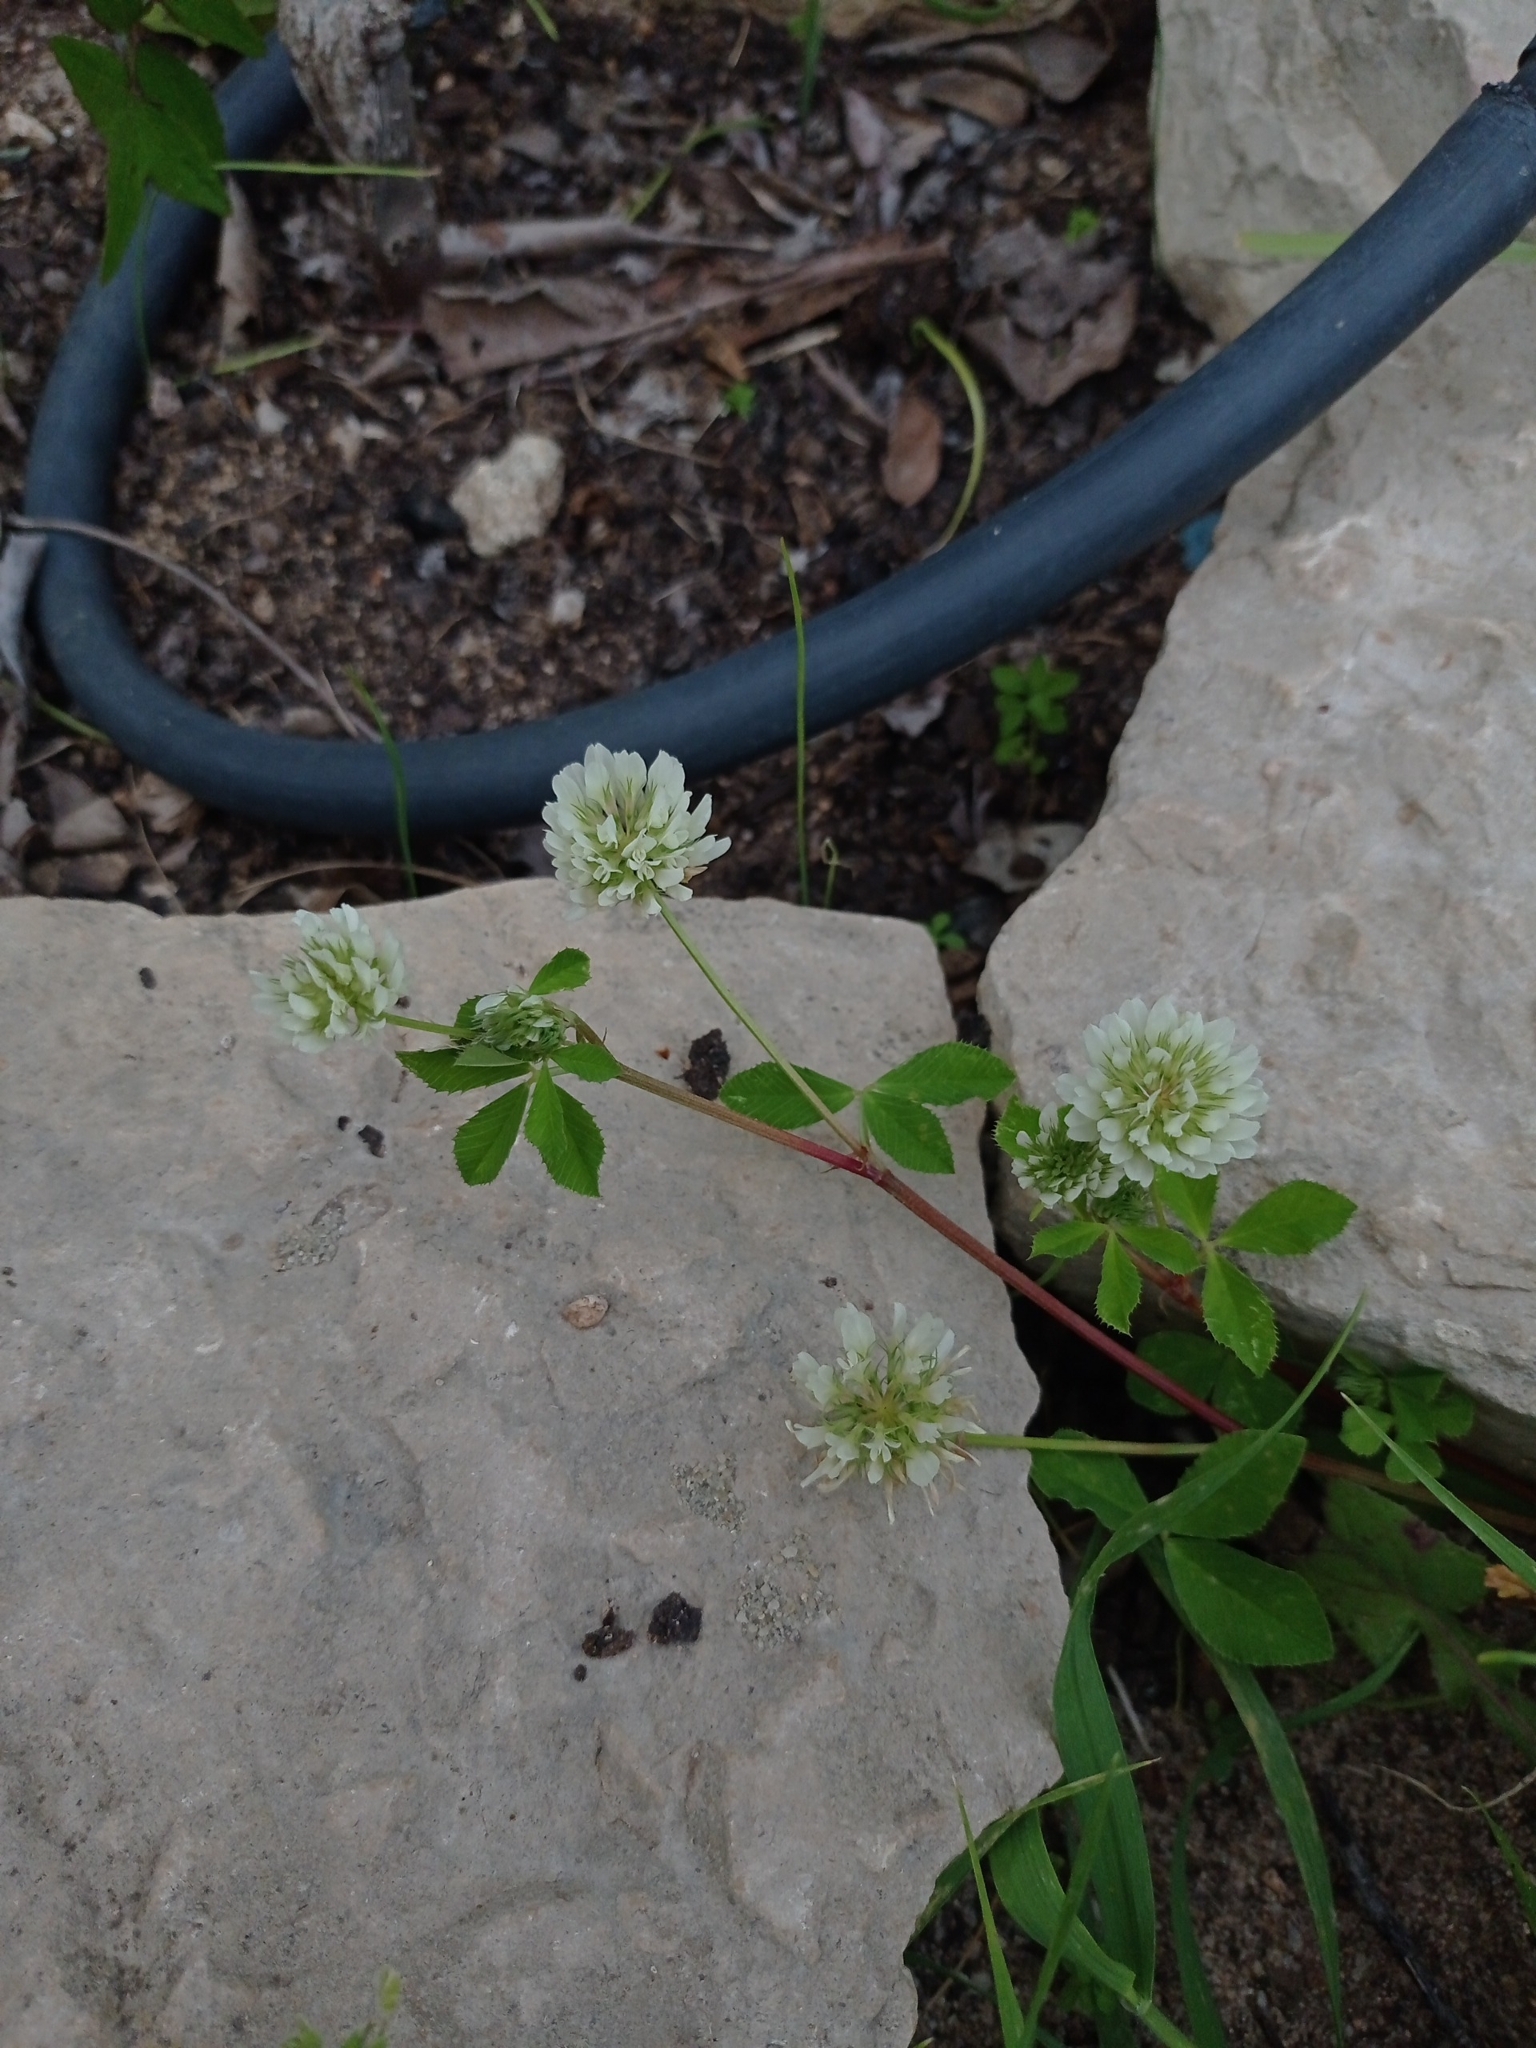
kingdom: Plantae
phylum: Tracheophyta
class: Magnoliopsida
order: Fabales
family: Fabaceae
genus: Trifolium
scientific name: Trifolium nigrescens
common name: Small white clover
